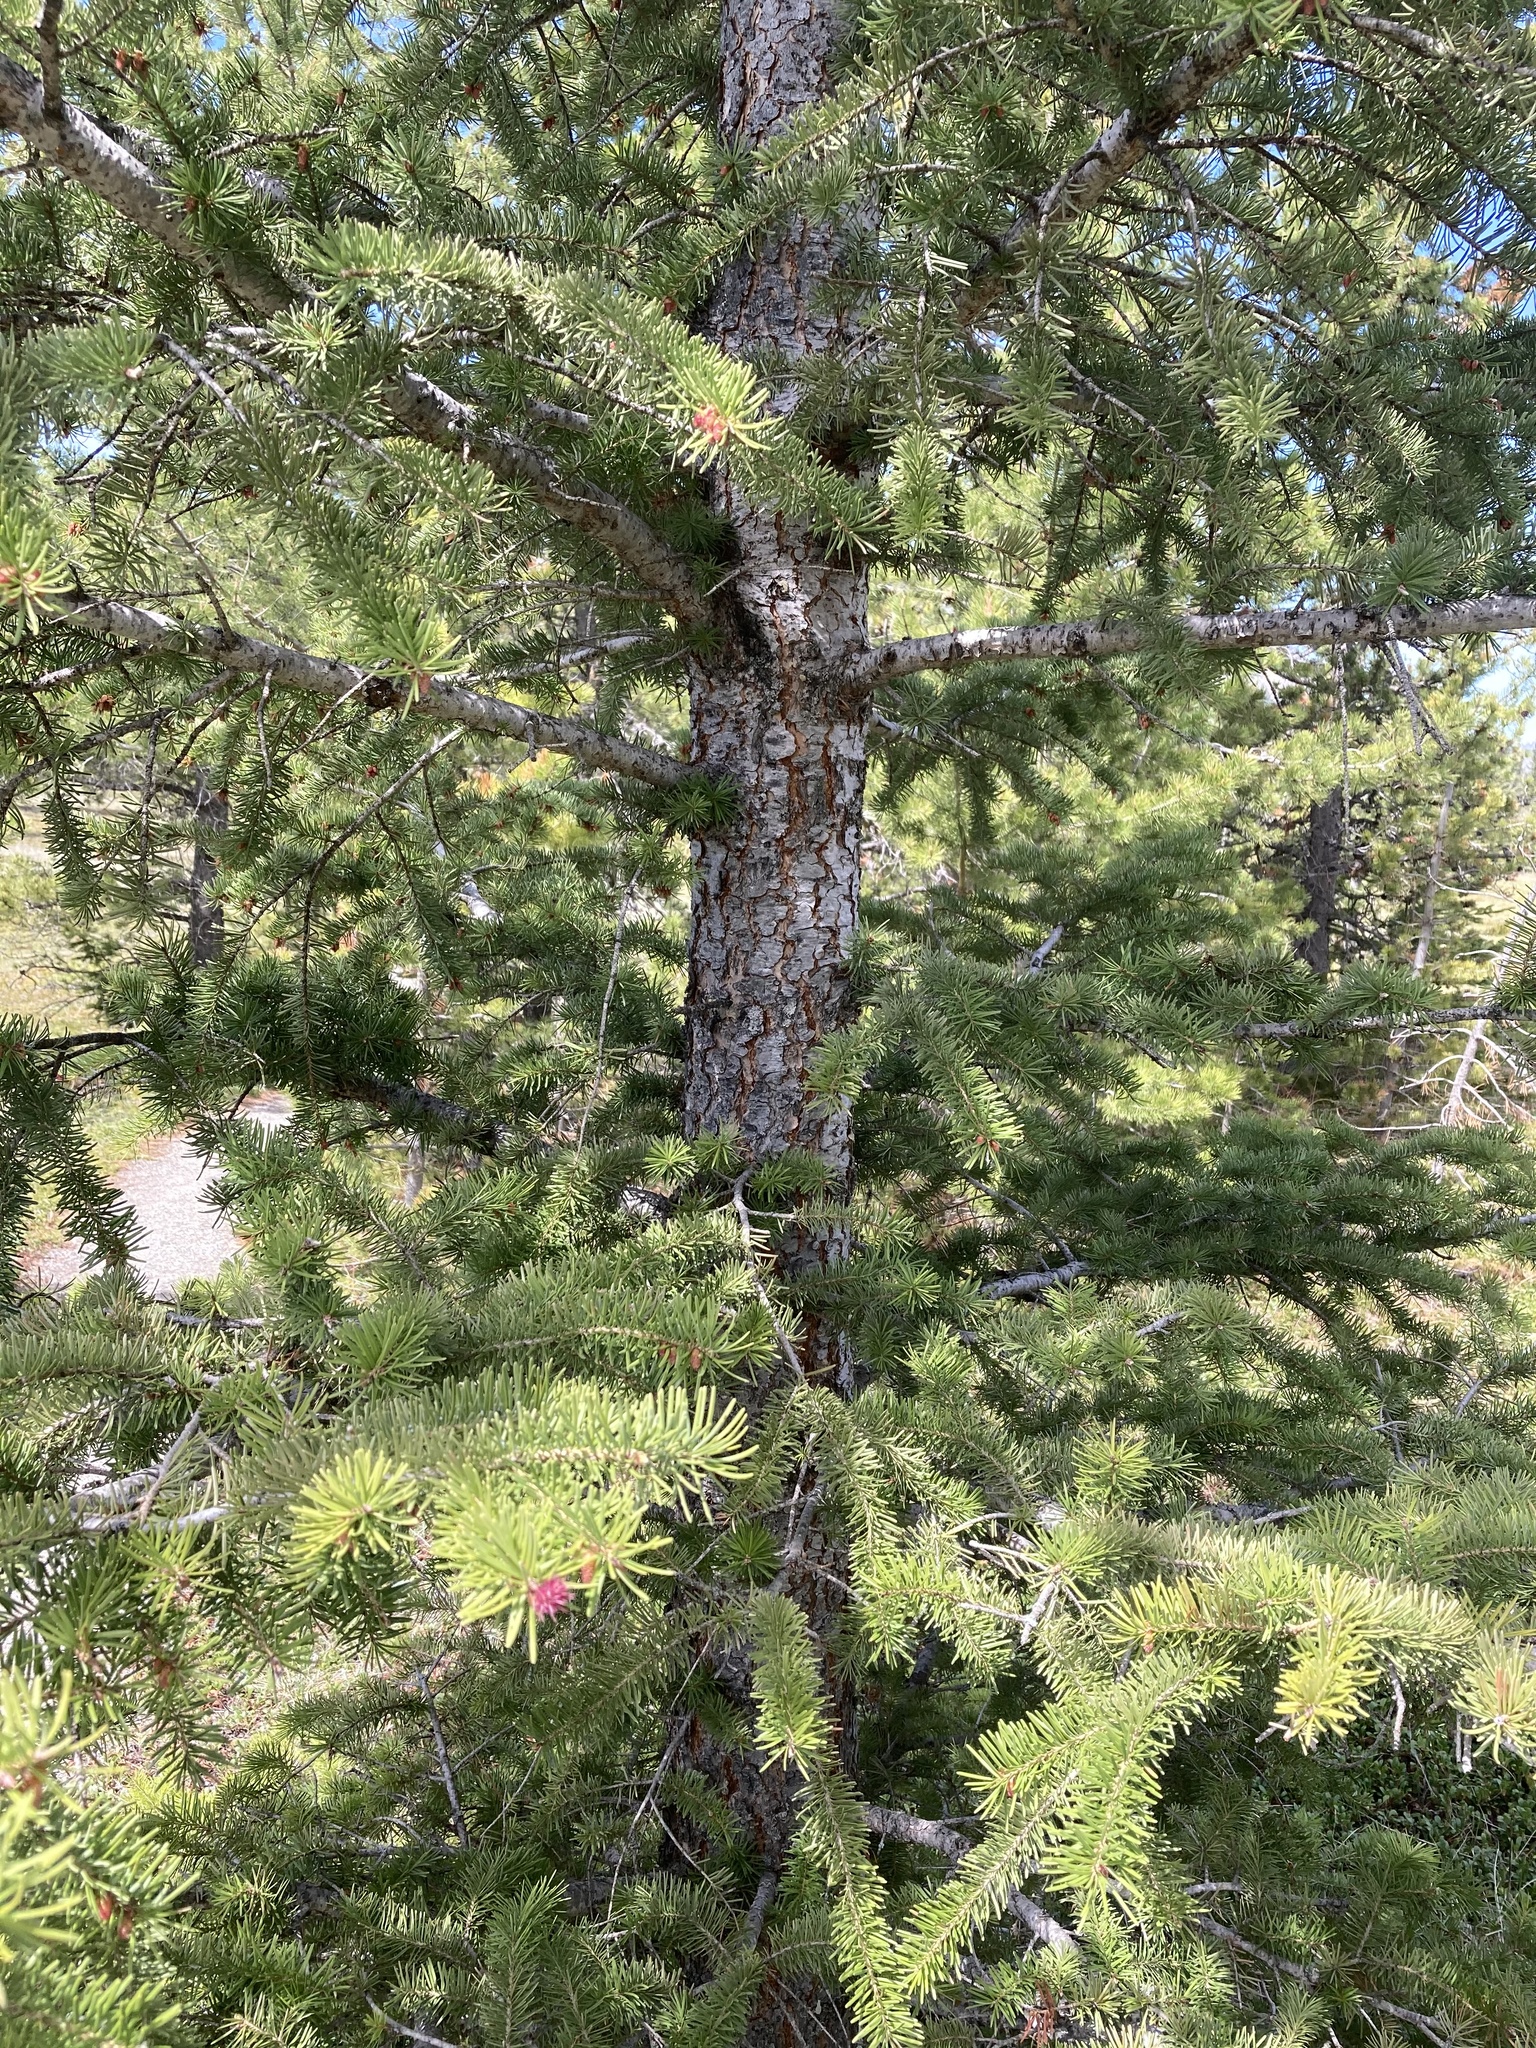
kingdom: Plantae
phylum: Tracheophyta
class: Pinopsida
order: Pinales
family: Pinaceae
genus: Pseudotsuga
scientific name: Pseudotsuga menziesii
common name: Douglas fir
